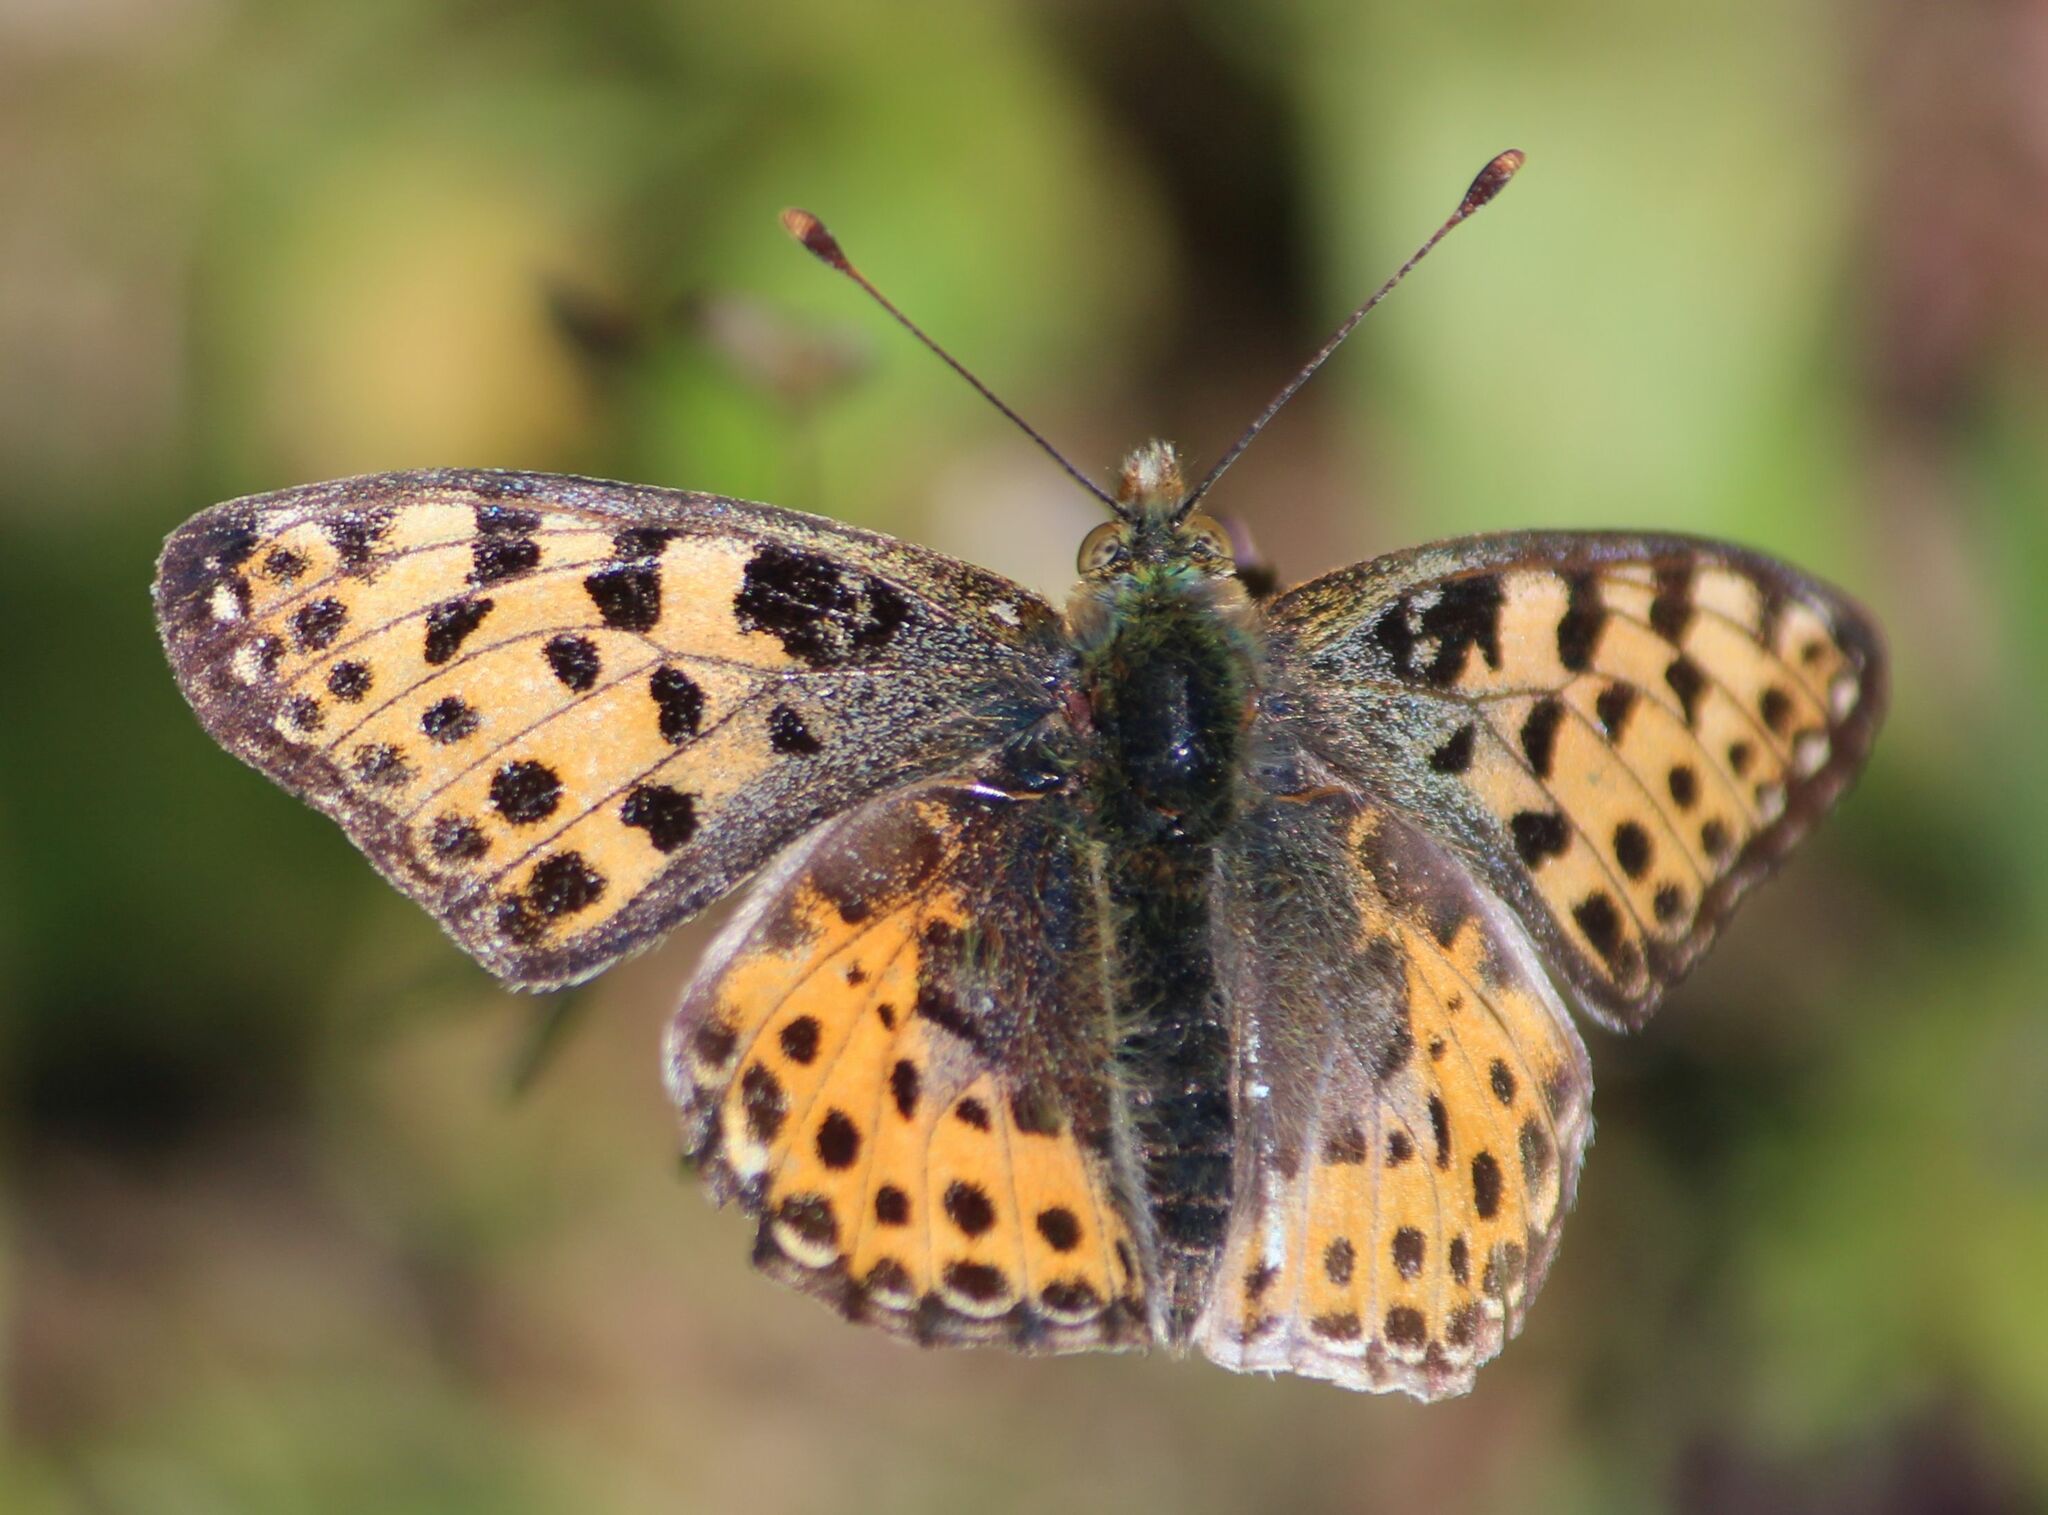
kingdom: Animalia
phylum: Arthropoda
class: Insecta
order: Lepidoptera
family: Nymphalidae
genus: Issoria
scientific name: Issoria lathonia
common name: Queen of spain fritillary
